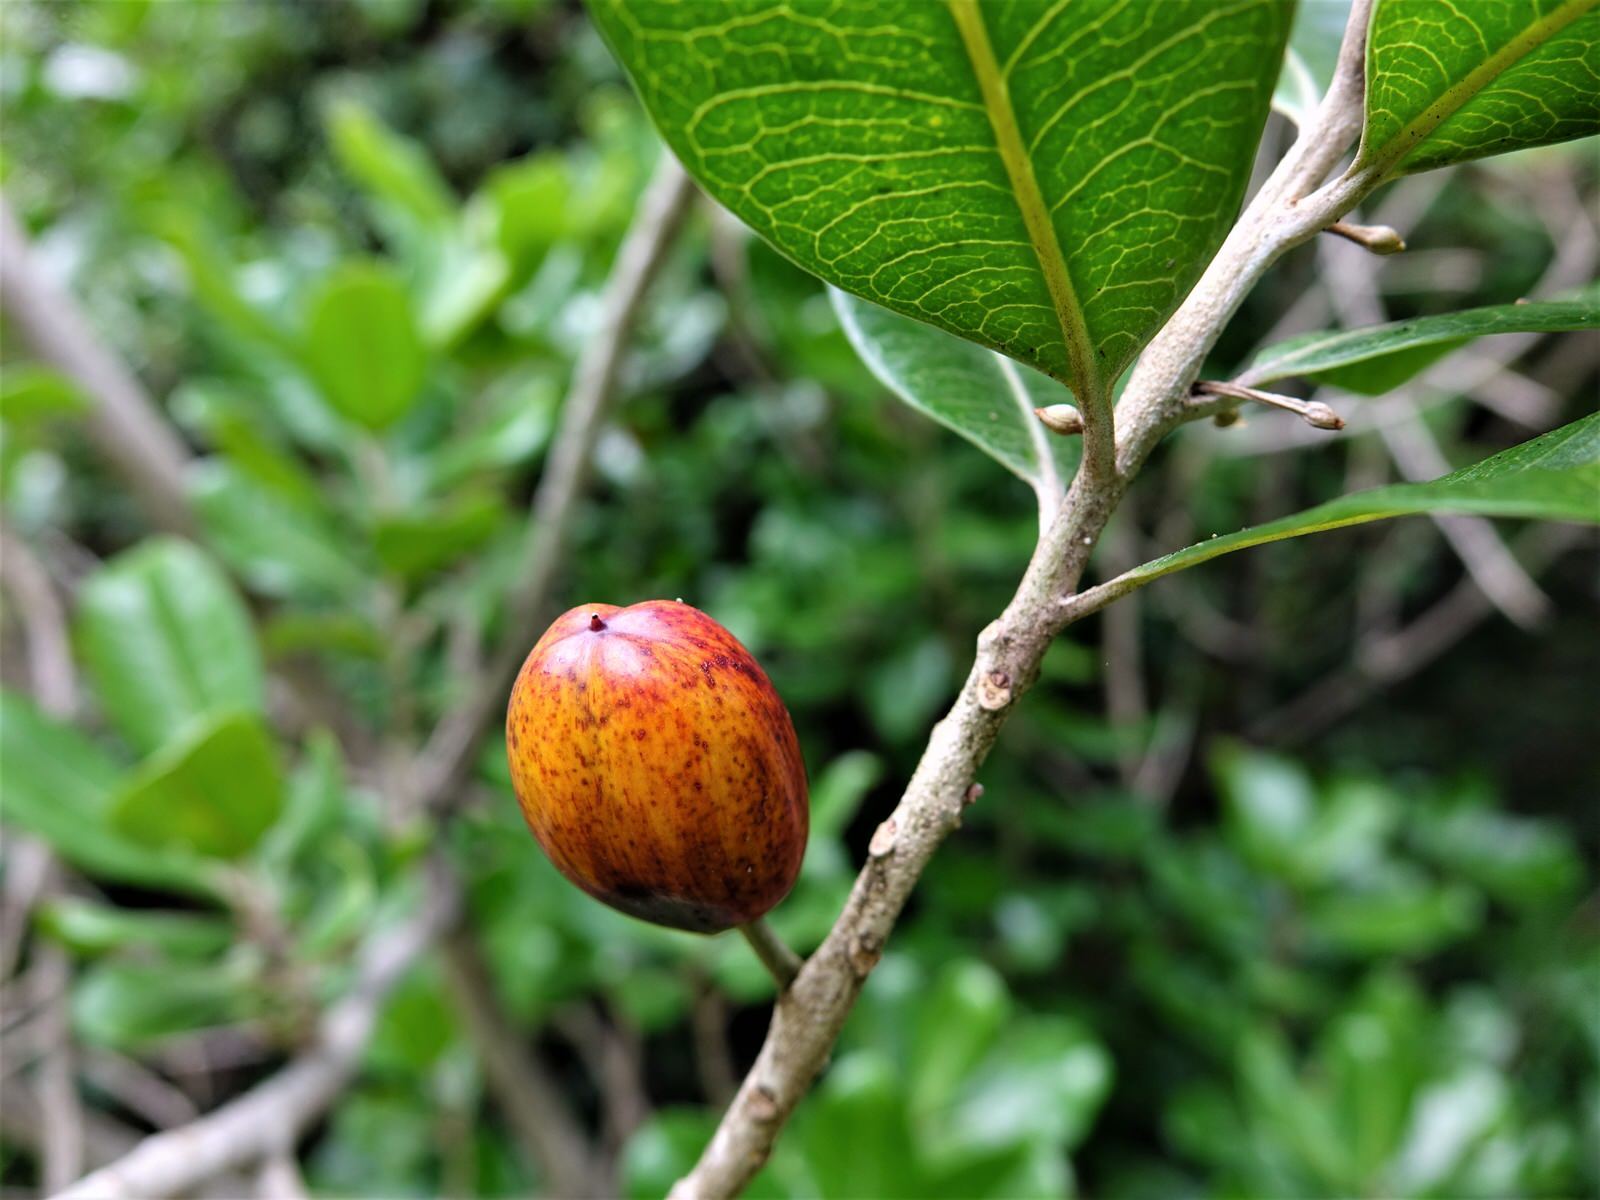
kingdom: Plantae
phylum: Tracheophyta
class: Magnoliopsida
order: Ericales
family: Sapotaceae
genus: Planchonella
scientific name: Planchonella costata
